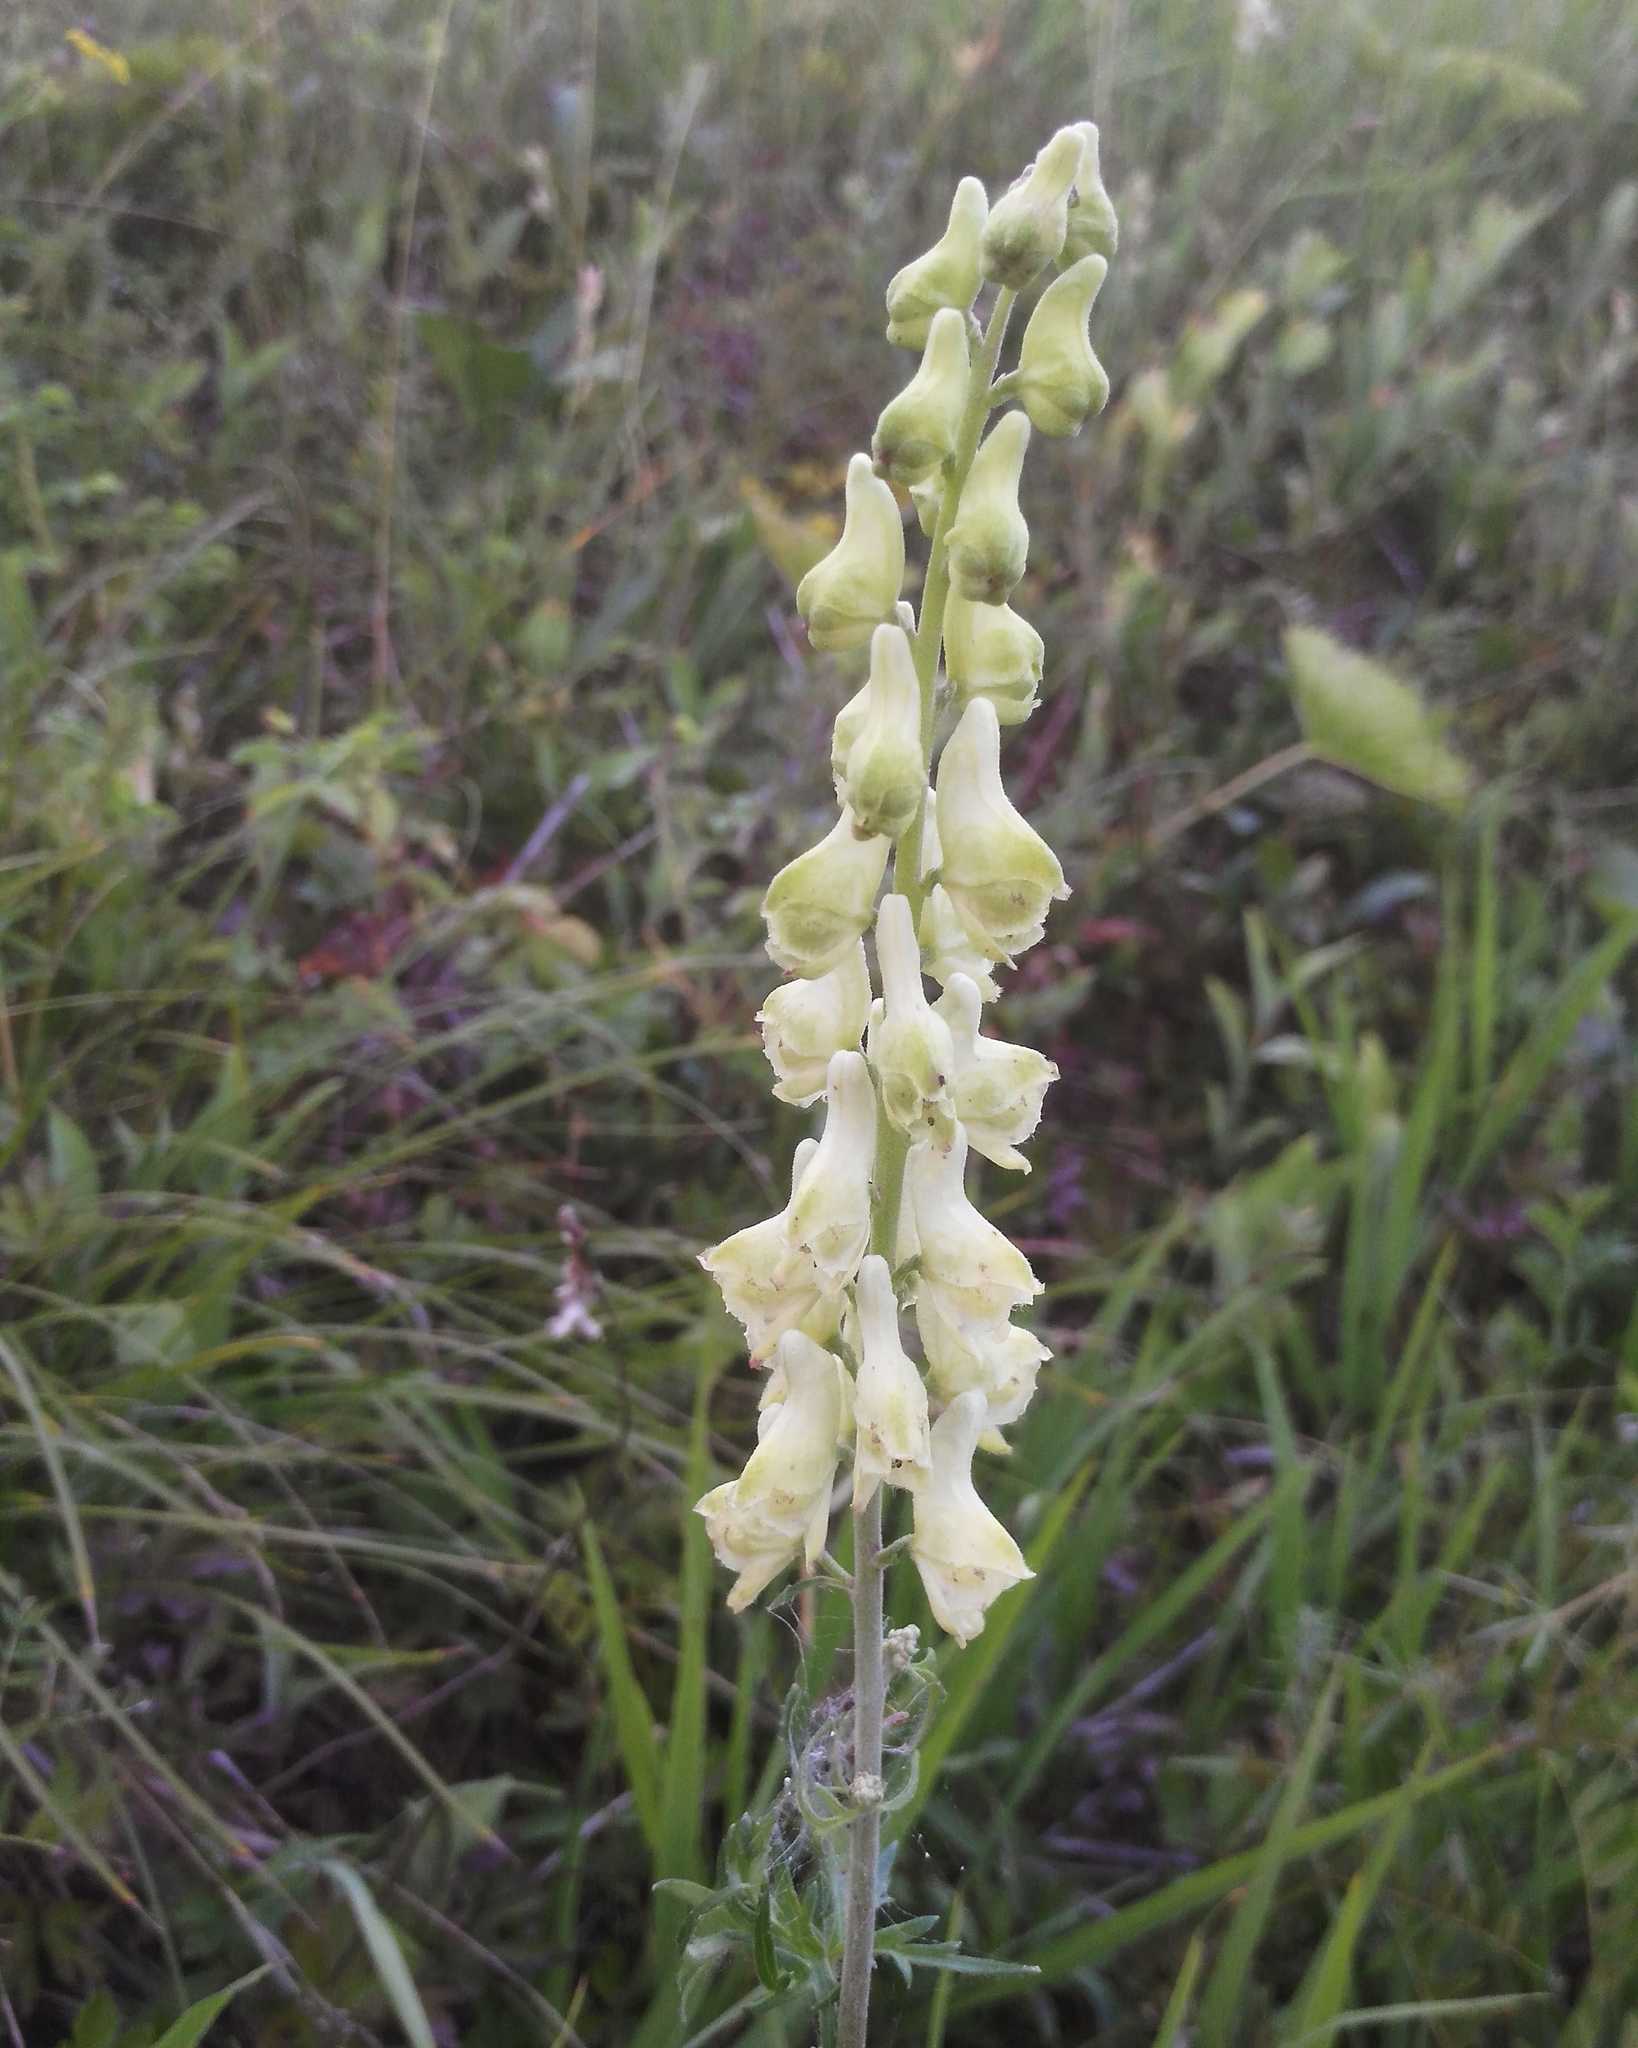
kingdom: Plantae
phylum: Tracheophyta
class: Magnoliopsida
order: Ranunculales
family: Ranunculaceae
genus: Aconitum
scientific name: Aconitum barbatum
